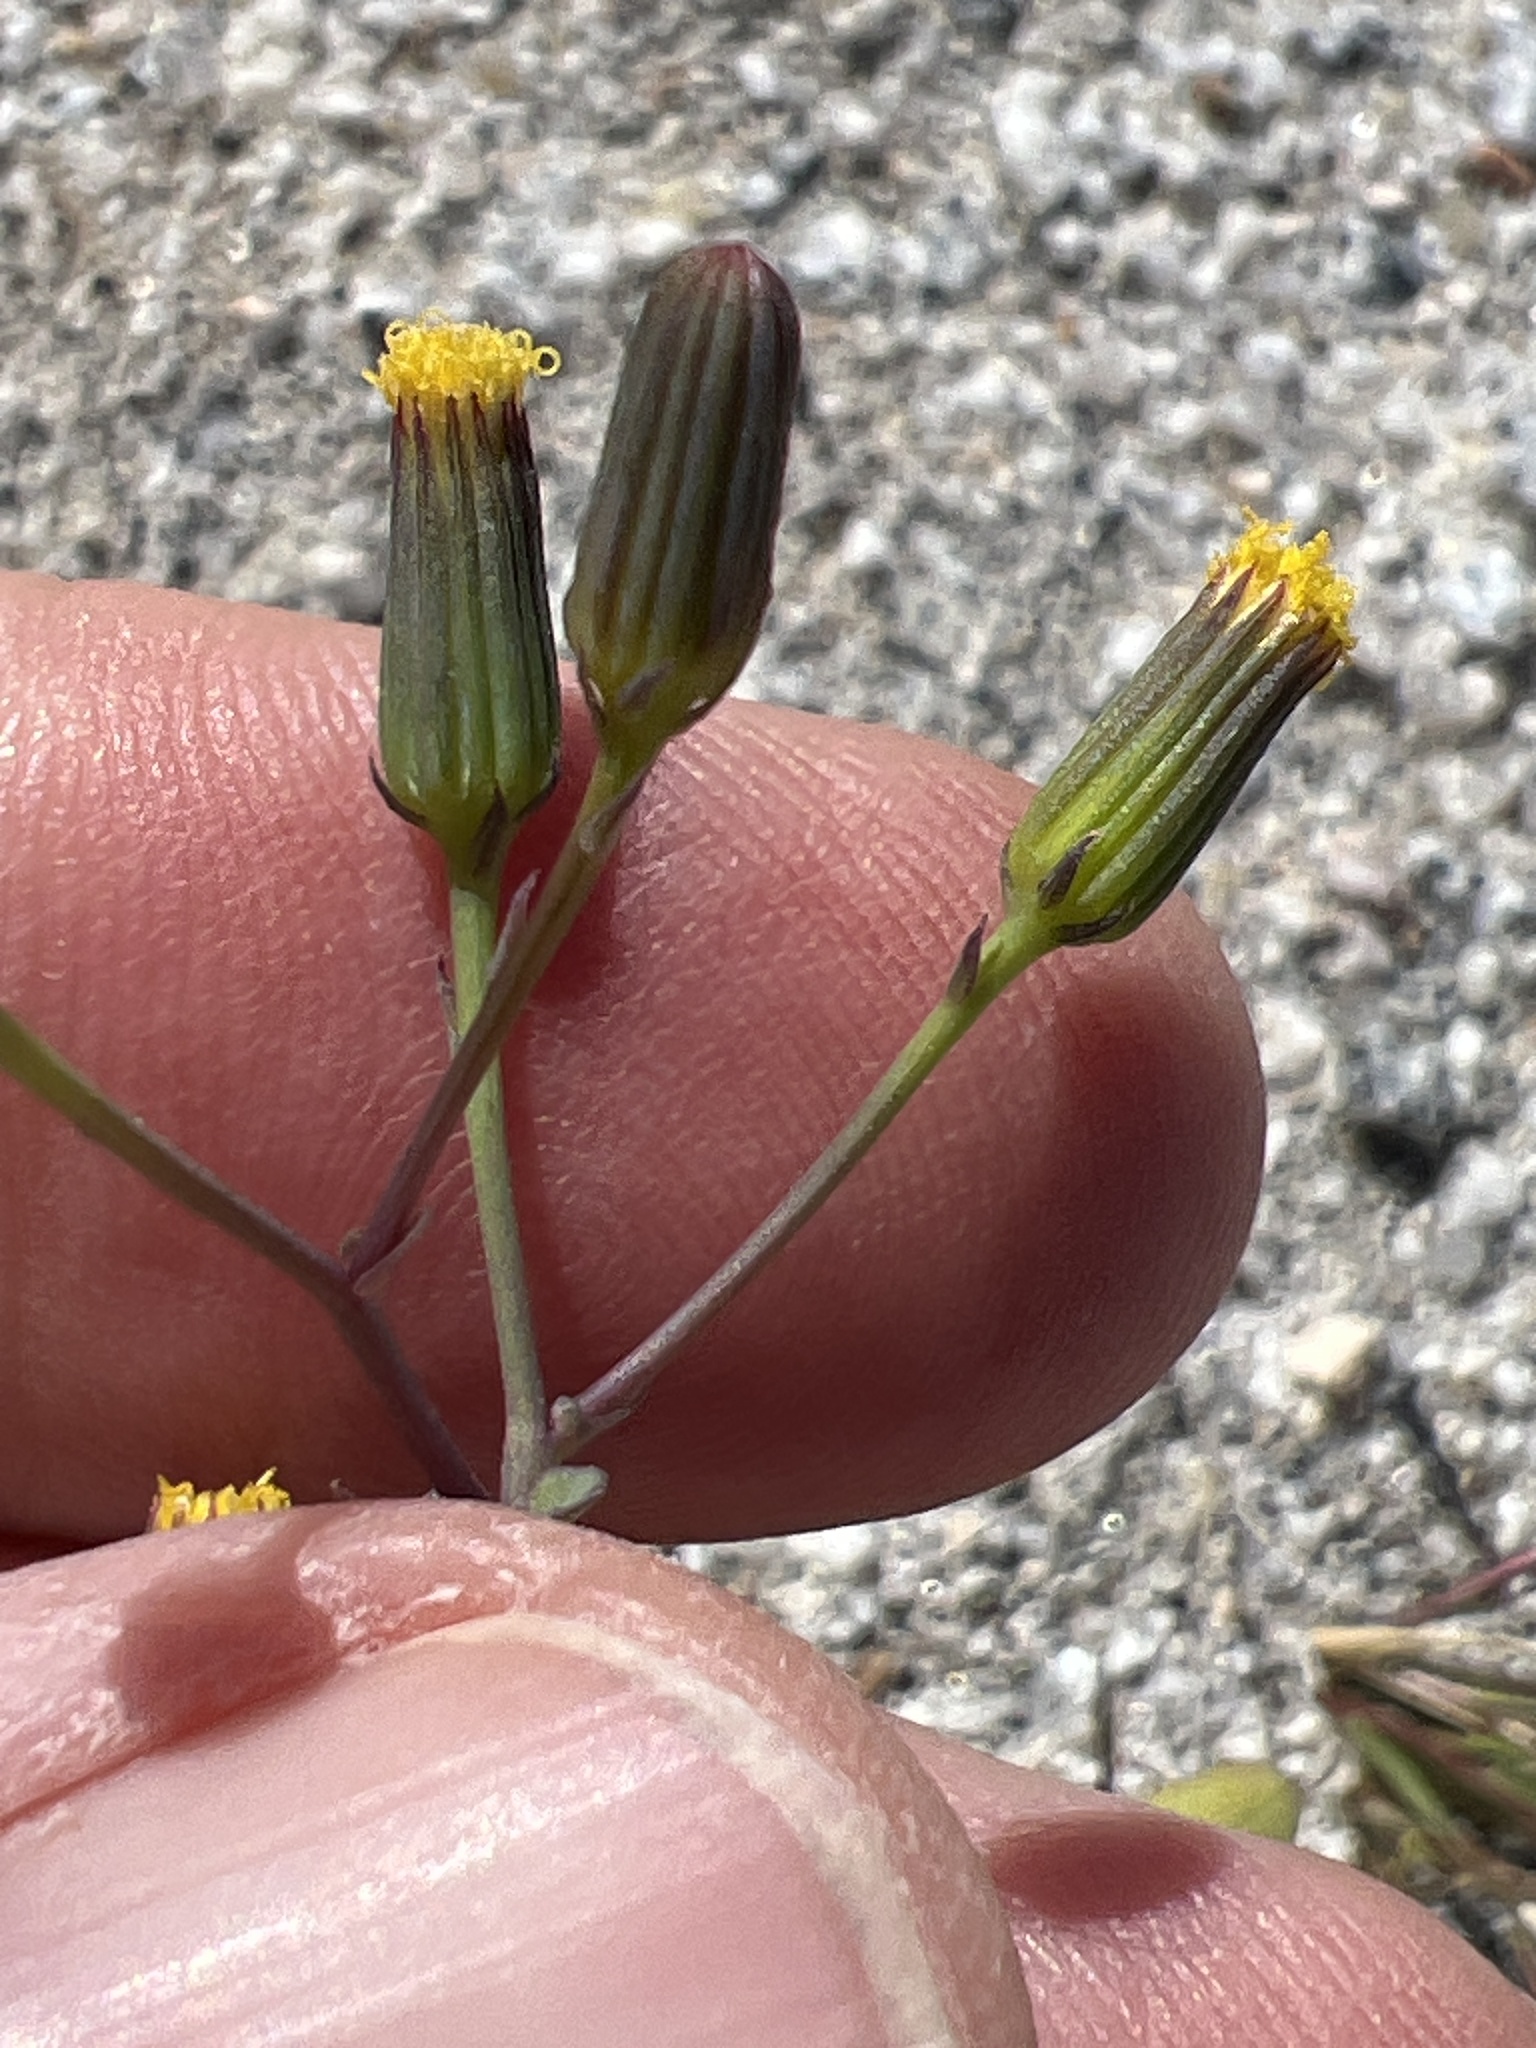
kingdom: Plantae
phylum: Tracheophyta
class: Magnoliopsida
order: Asterales
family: Asteraceae
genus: Senecio
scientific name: Senecio mohavensis
